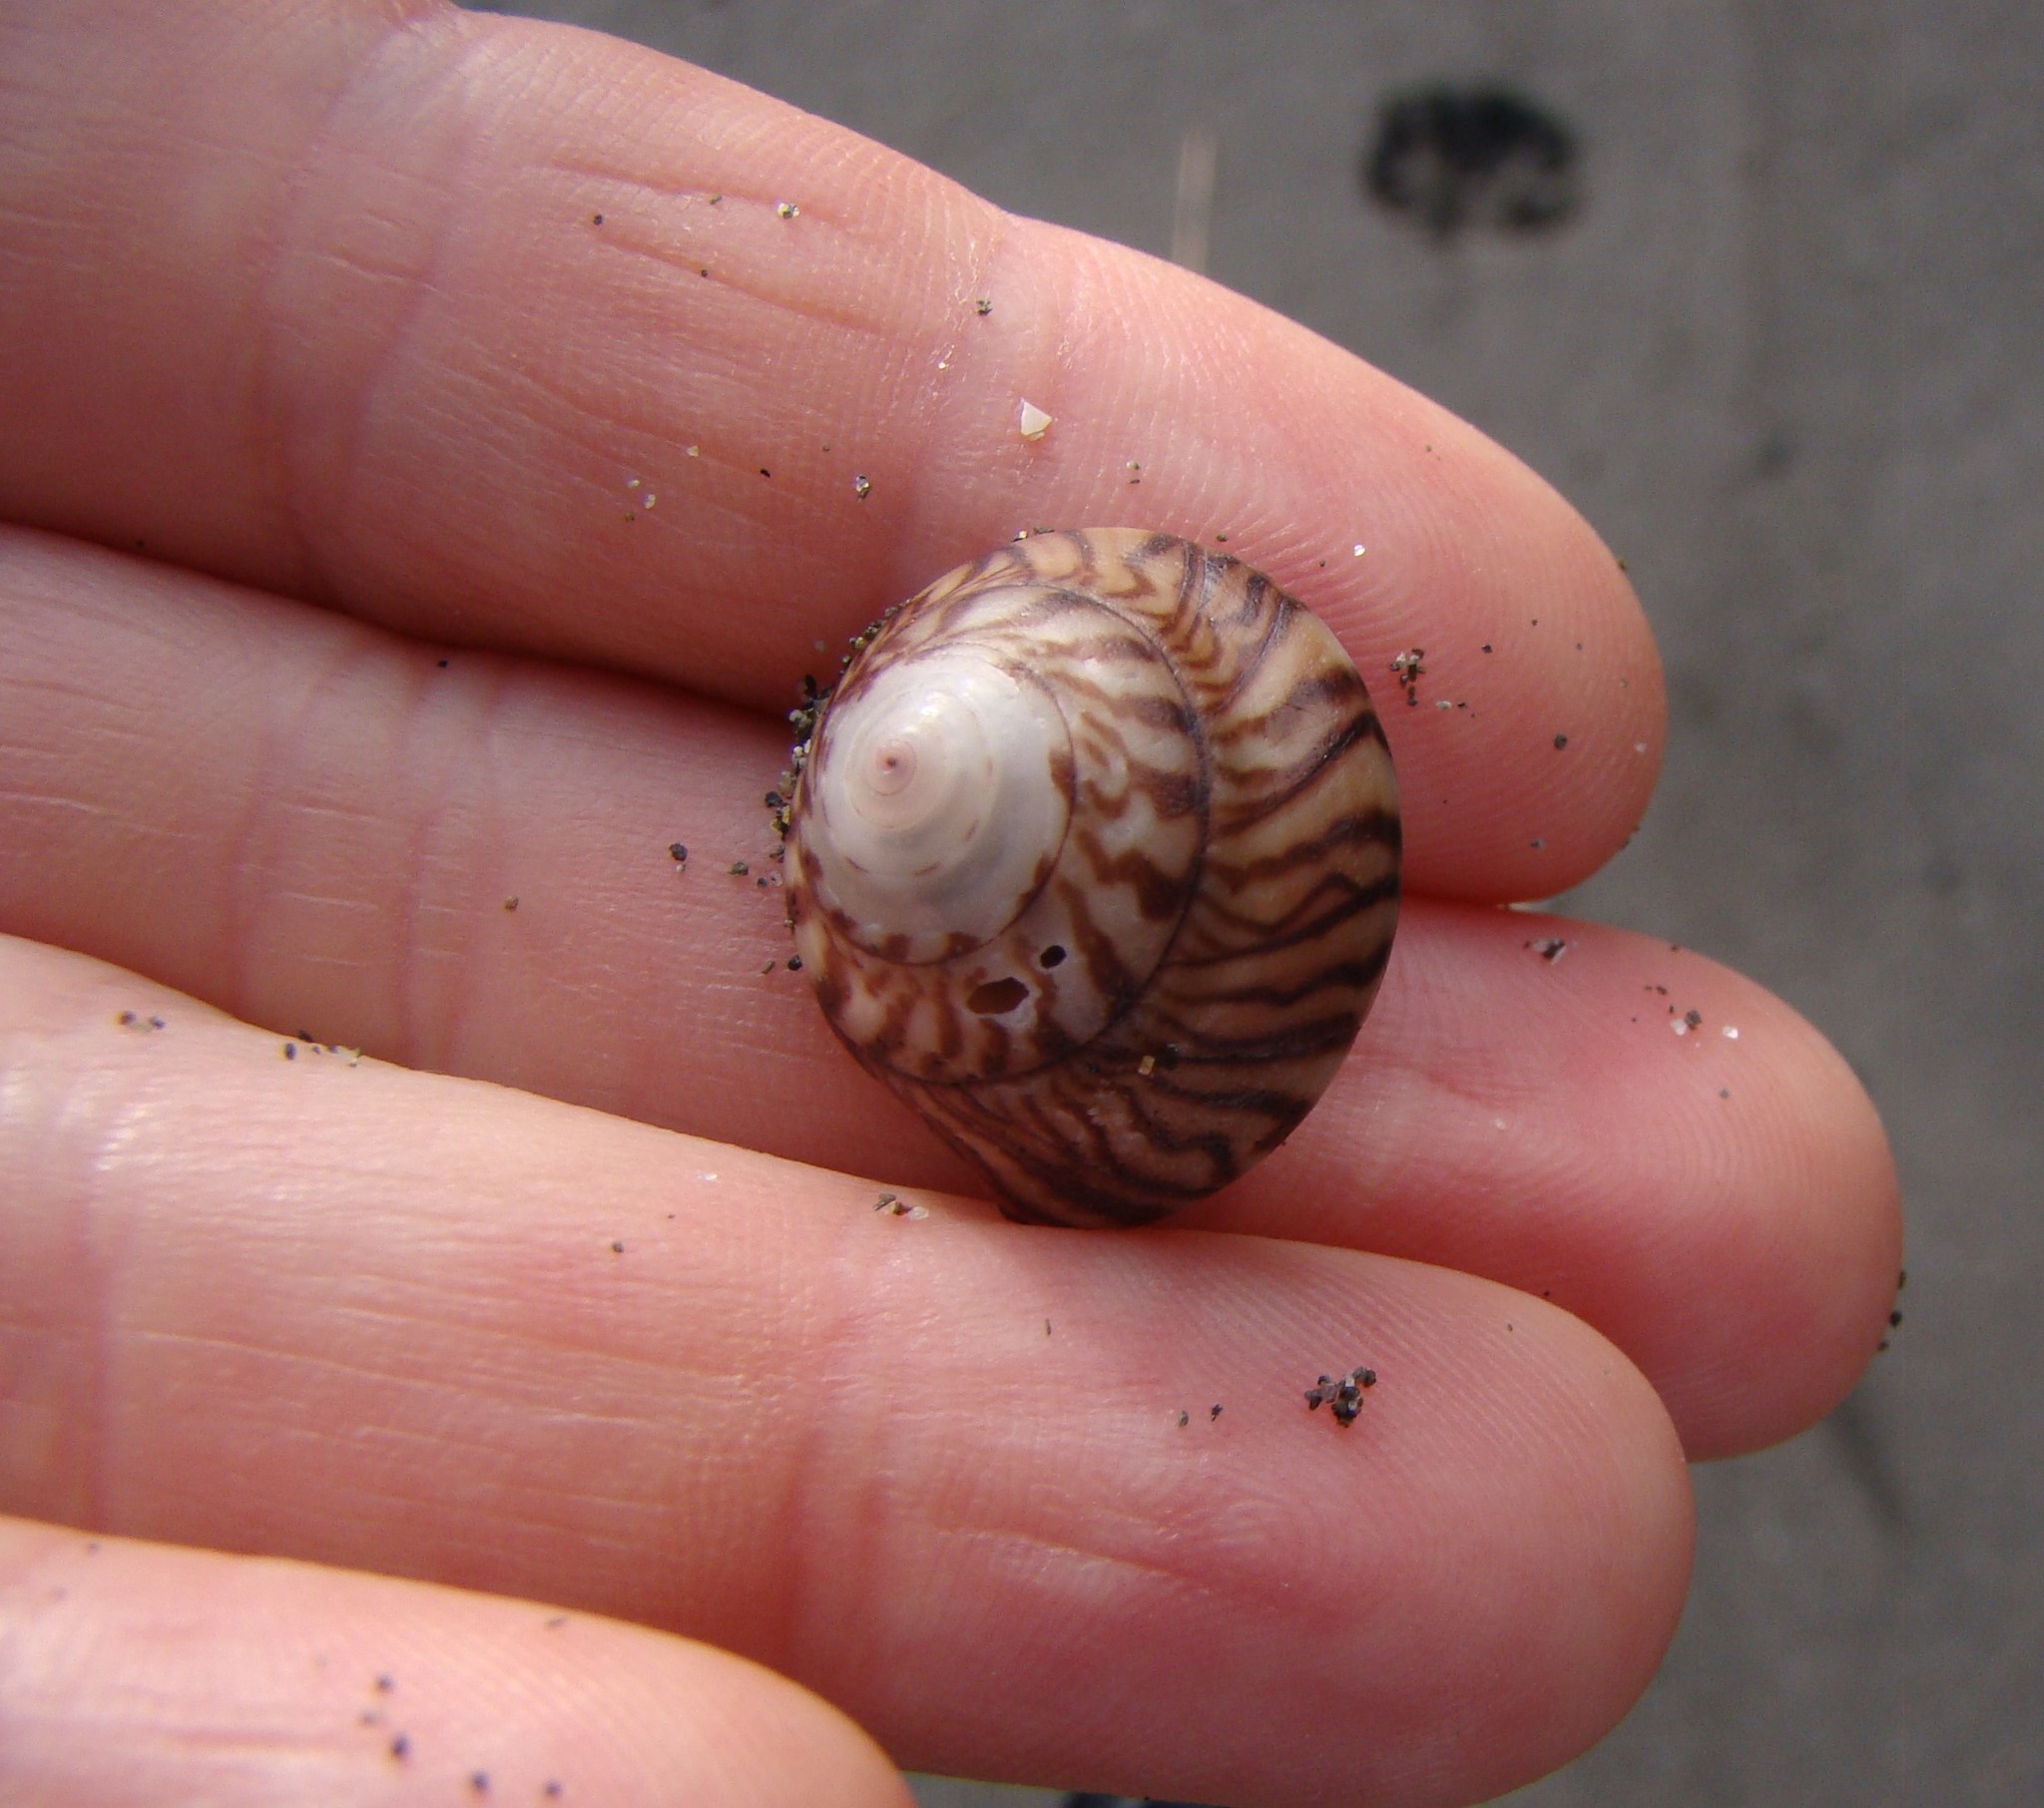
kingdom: Animalia
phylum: Mollusca
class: Gastropoda
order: Trochida
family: Trochidae
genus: Zethalia
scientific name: Zethalia zelandica
